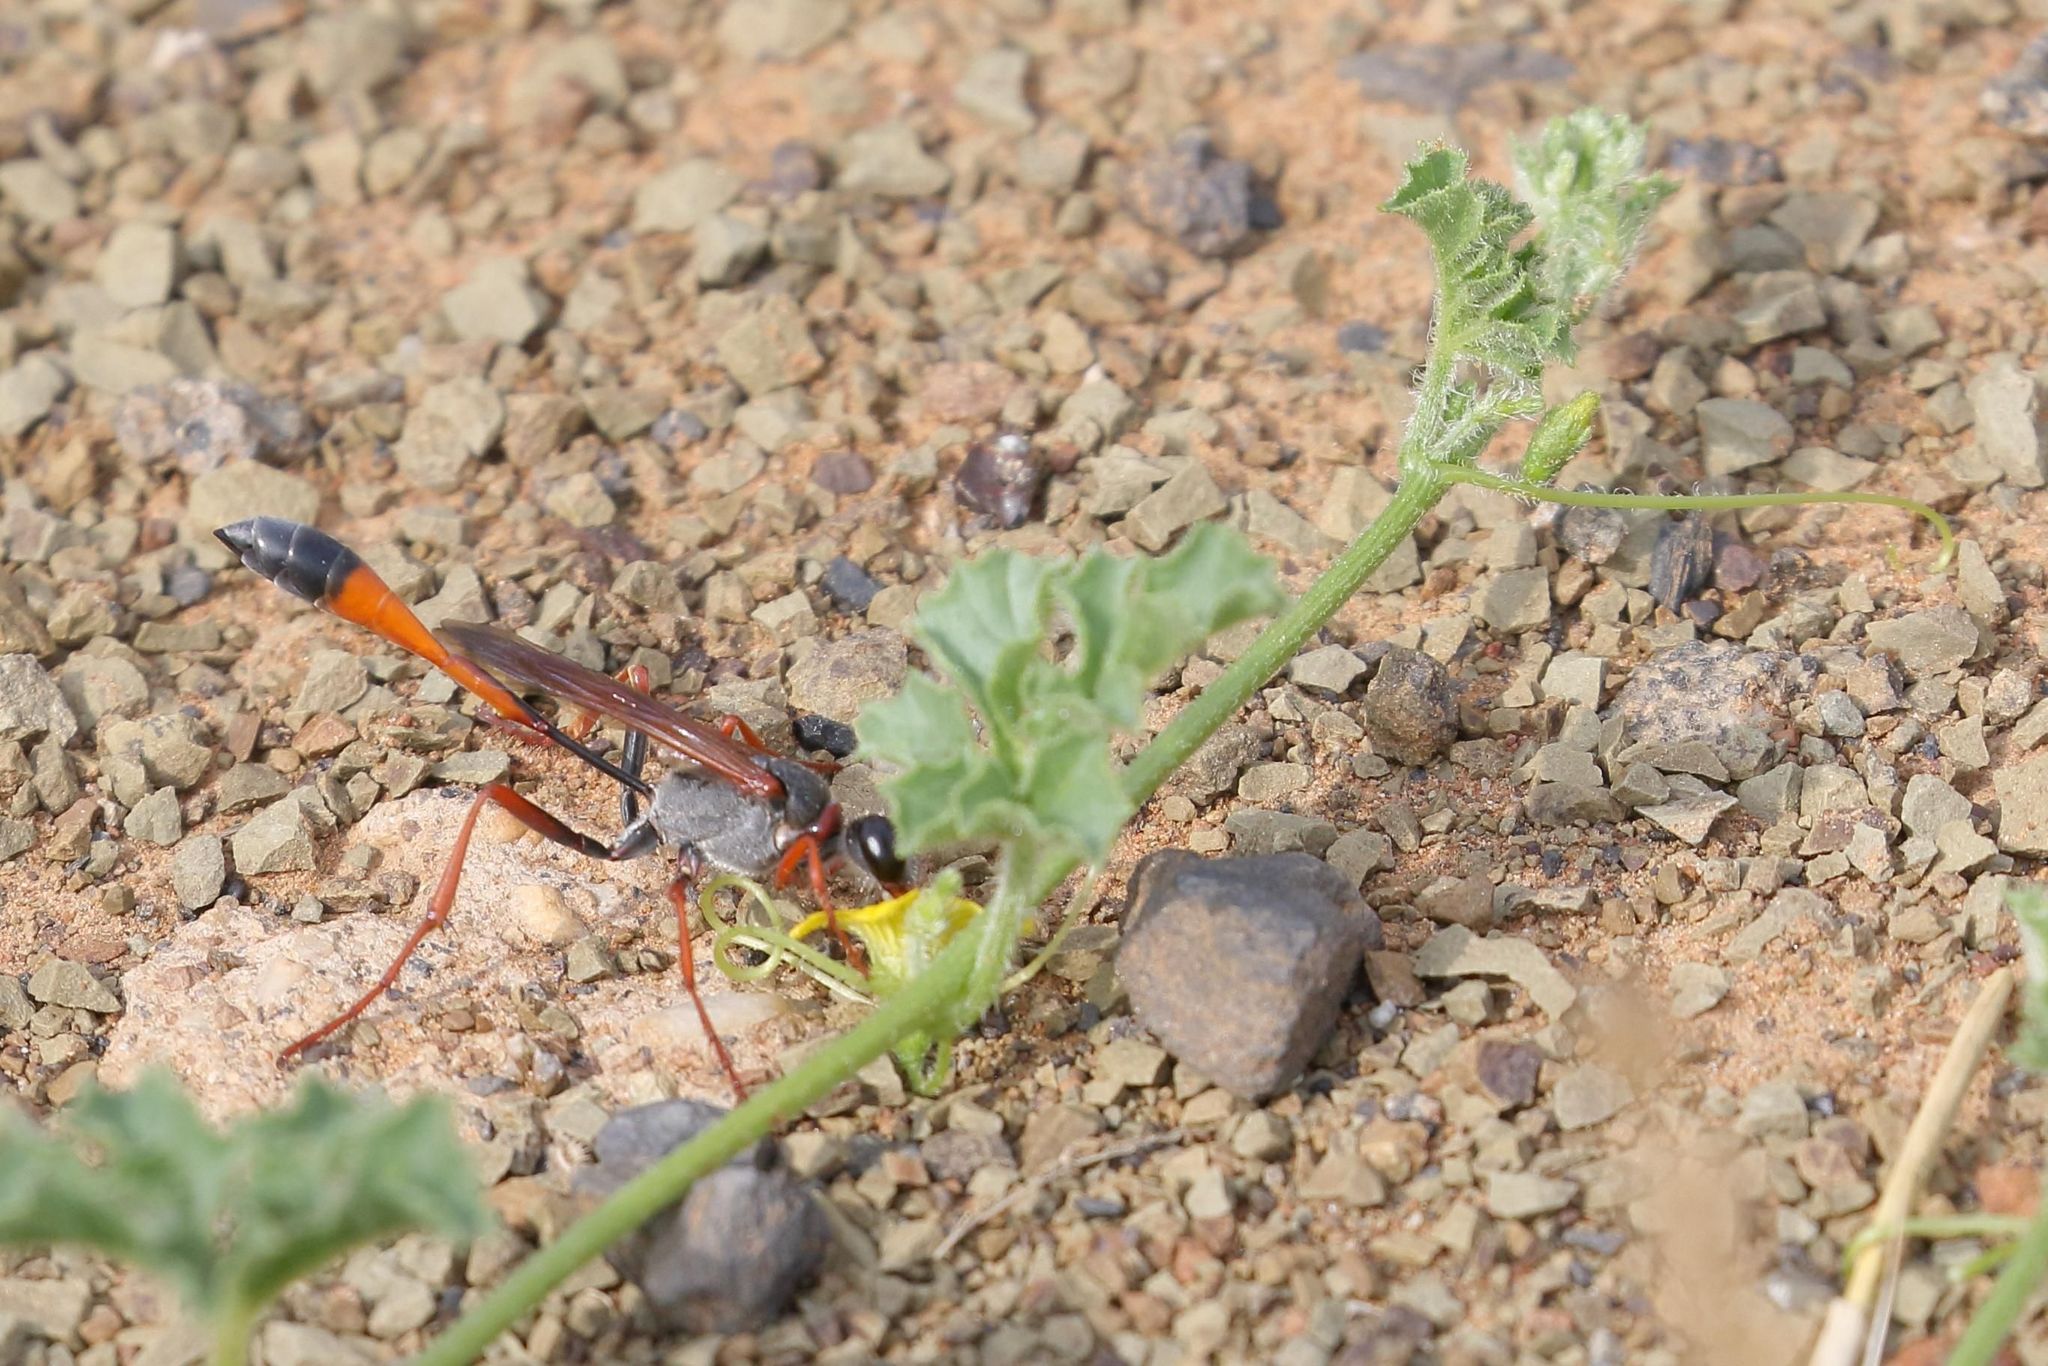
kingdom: Plantae
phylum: Tracheophyta
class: Magnoliopsida
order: Cucurbitales
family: Cucurbitaceae
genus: Cucumis
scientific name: Cucumis myriocarpus
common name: Gooseberry cucumber
